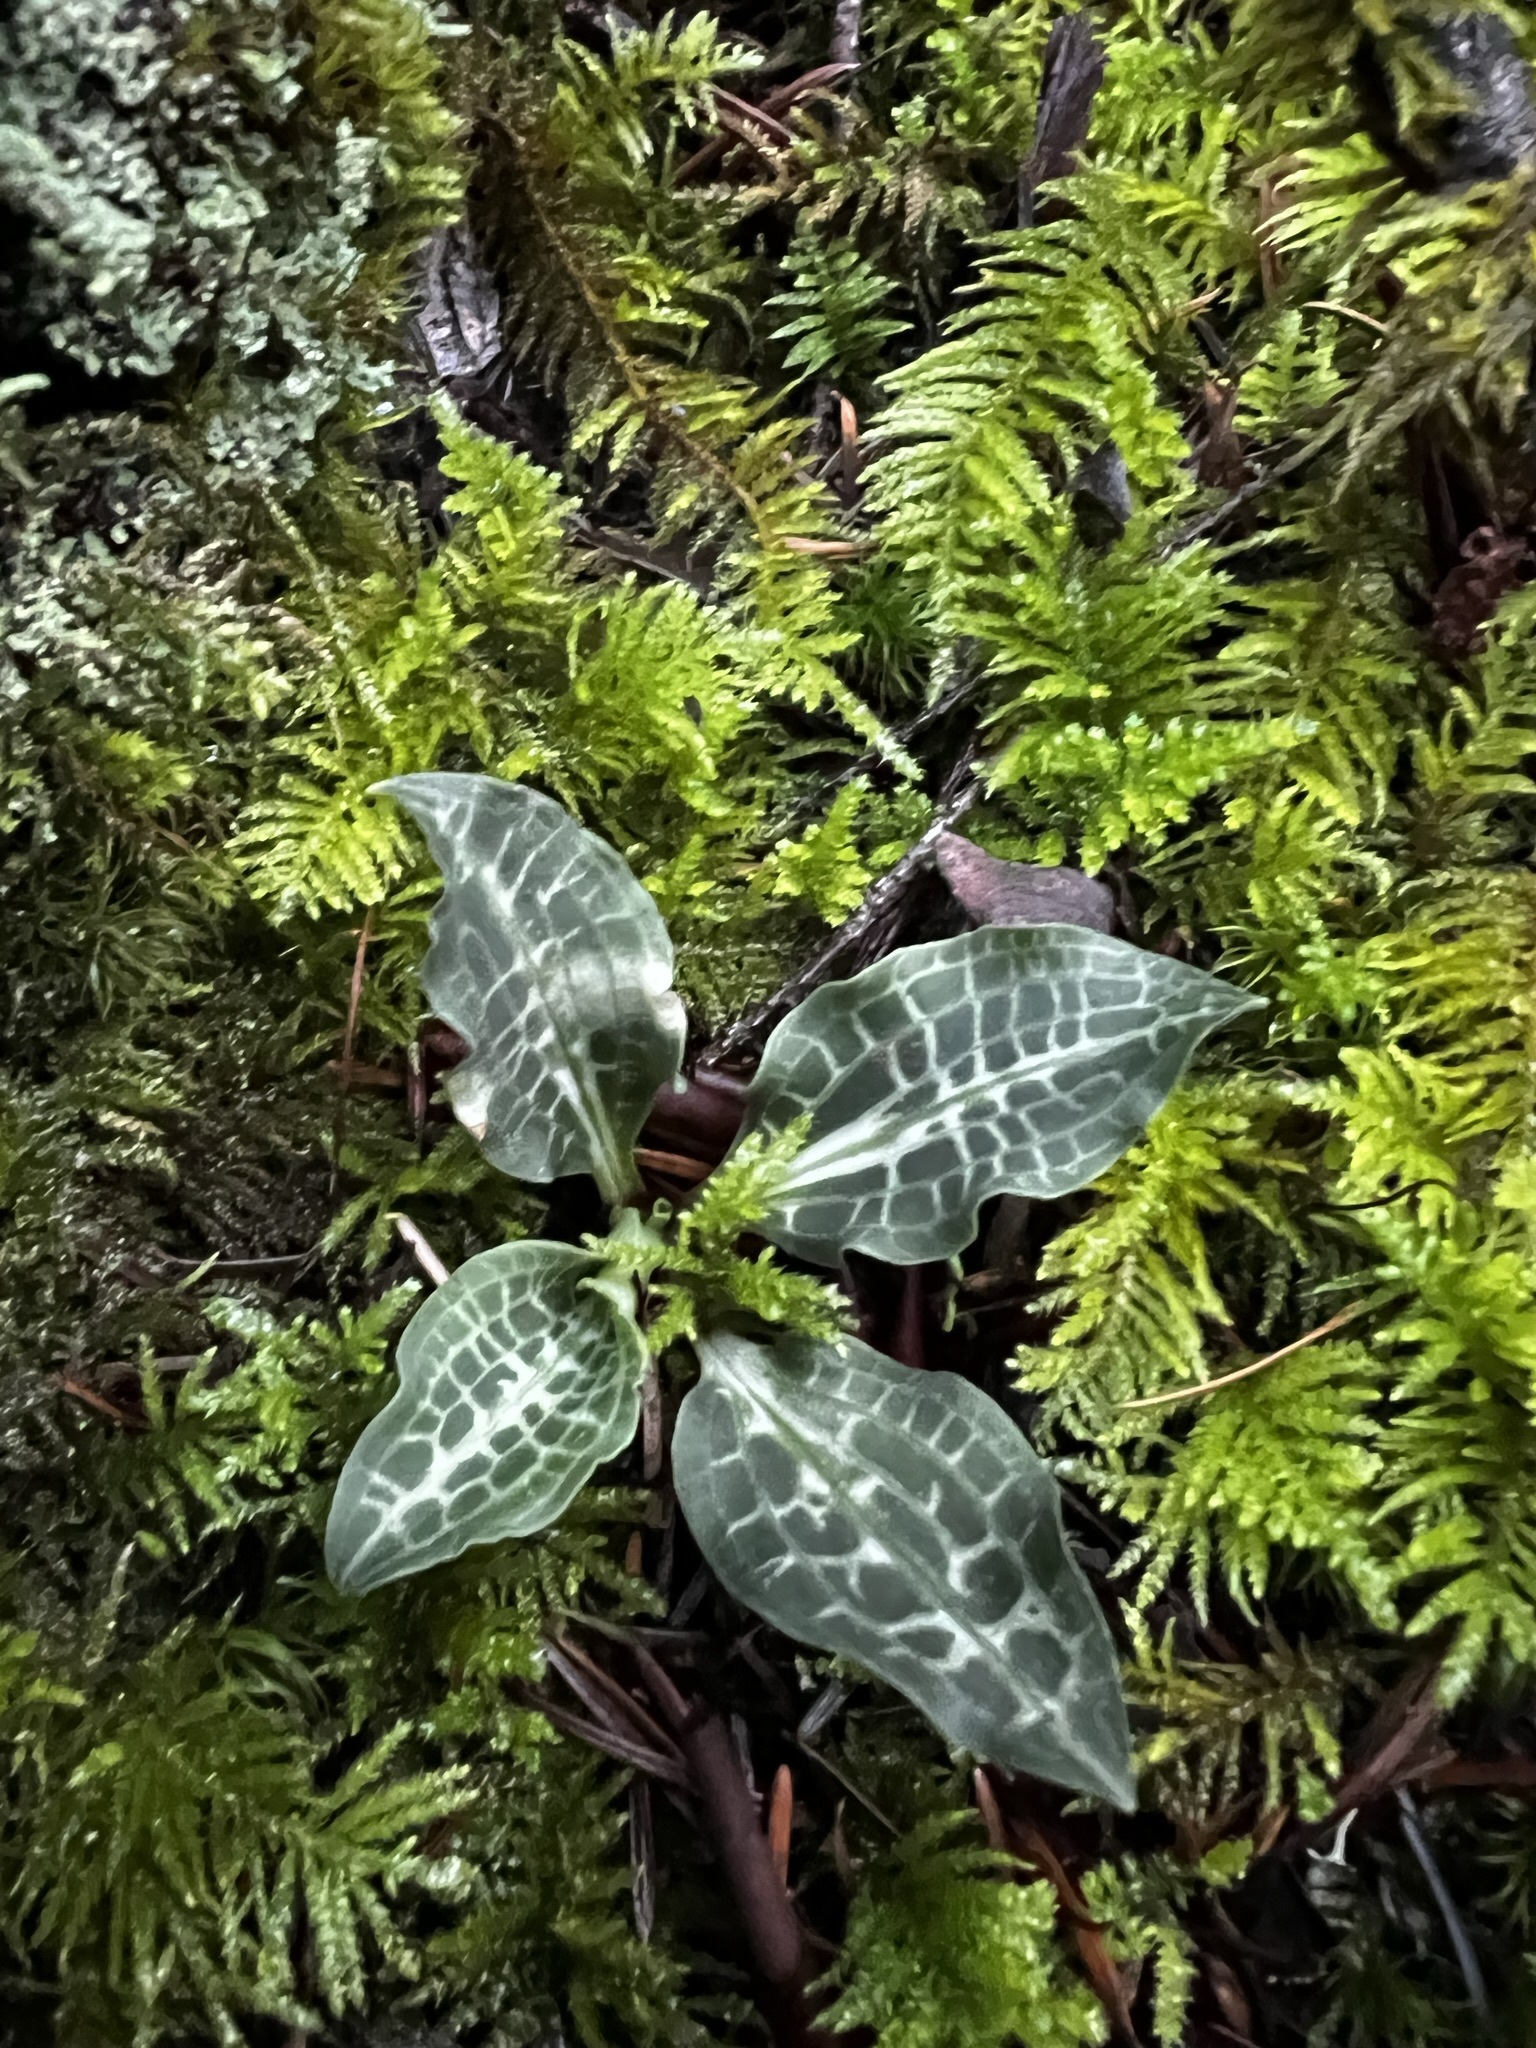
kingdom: Plantae
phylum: Tracheophyta
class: Liliopsida
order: Asparagales
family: Orchidaceae
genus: Goodyera
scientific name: Goodyera oblongifolia
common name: Giant rattlesnake-plantain
